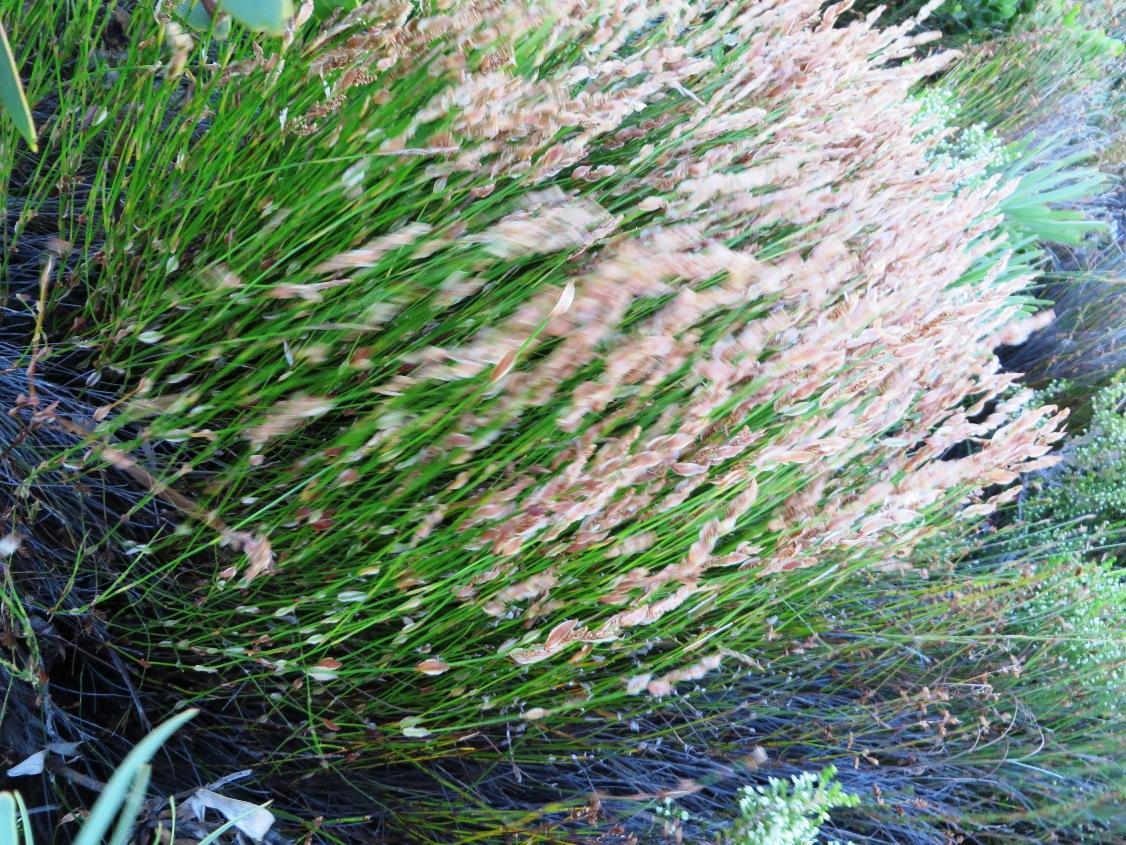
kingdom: Plantae
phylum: Tracheophyta
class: Liliopsida
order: Poales
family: Restionaceae
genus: Elegia
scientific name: Elegia stipularis
